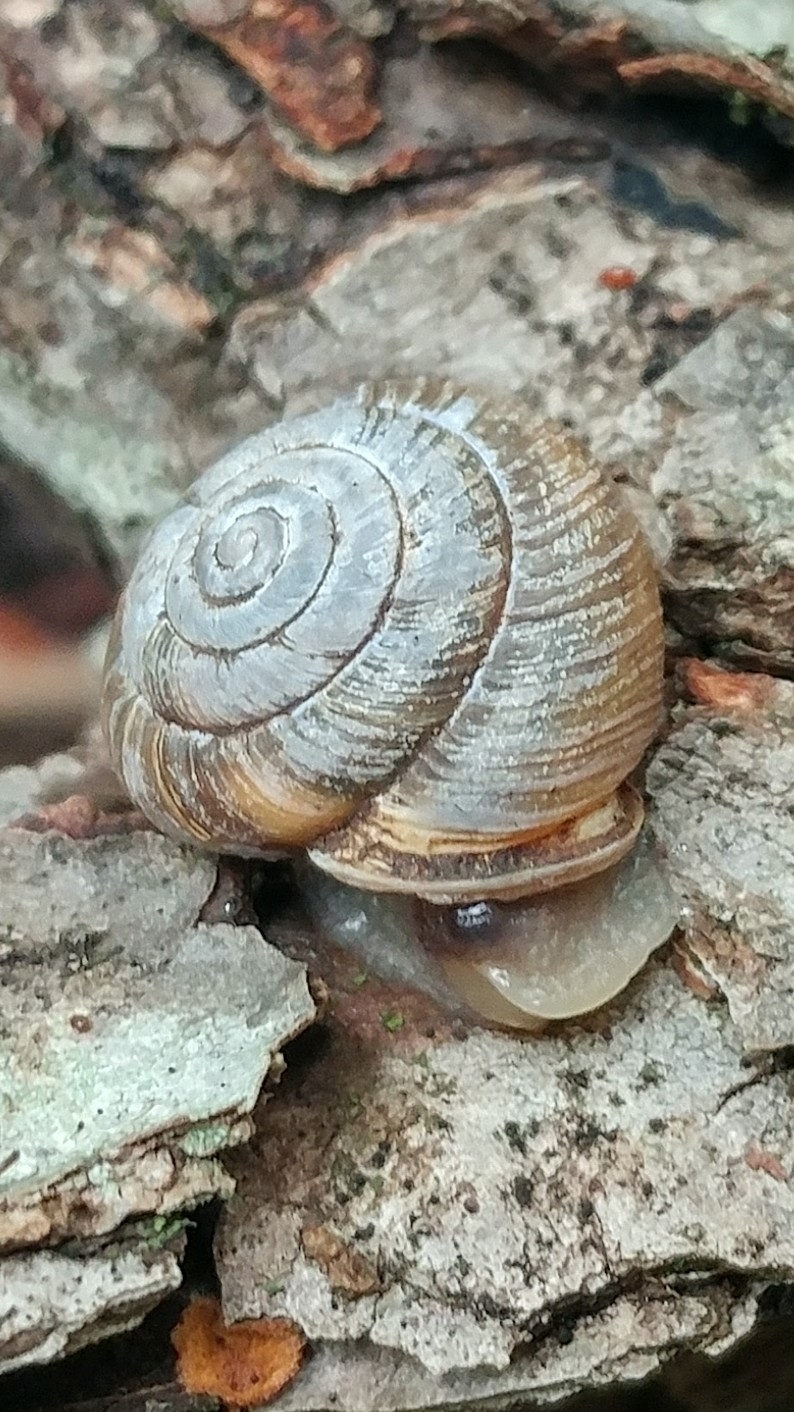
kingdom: Animalia
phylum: Mollusca
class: Gastropoda
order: Stylommatophora
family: Polygyridae
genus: Ashmunella
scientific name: Ashmunella rhyssa
